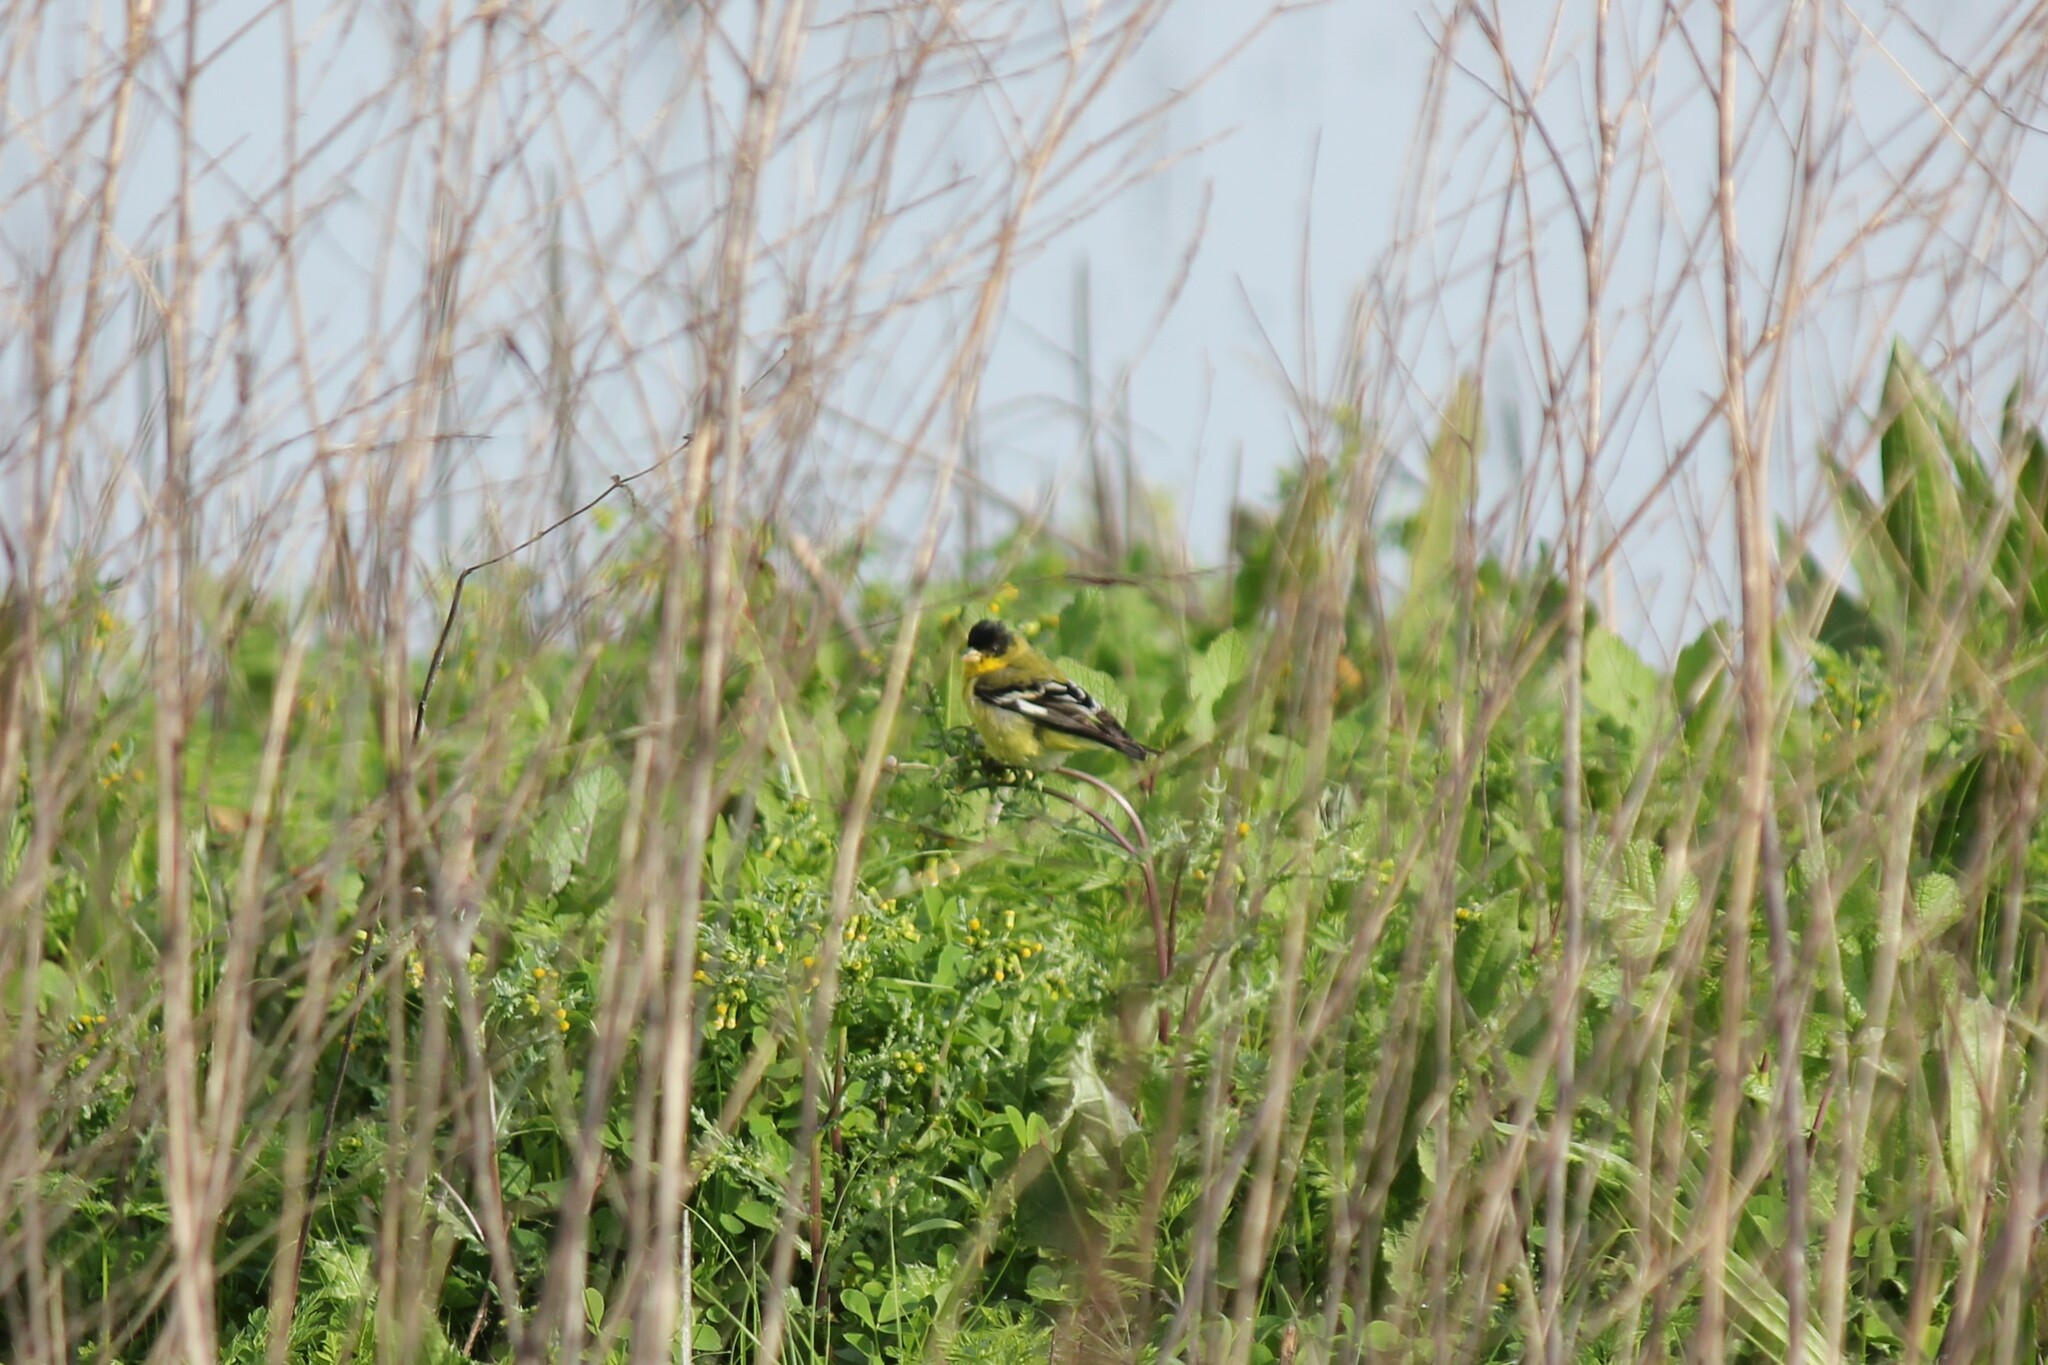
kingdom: Animalia
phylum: Chordata
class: Aves
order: Passeriformes
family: Fringillidae
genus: Spinus
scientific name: Spinus psaltria
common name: Lesser goldfinch
